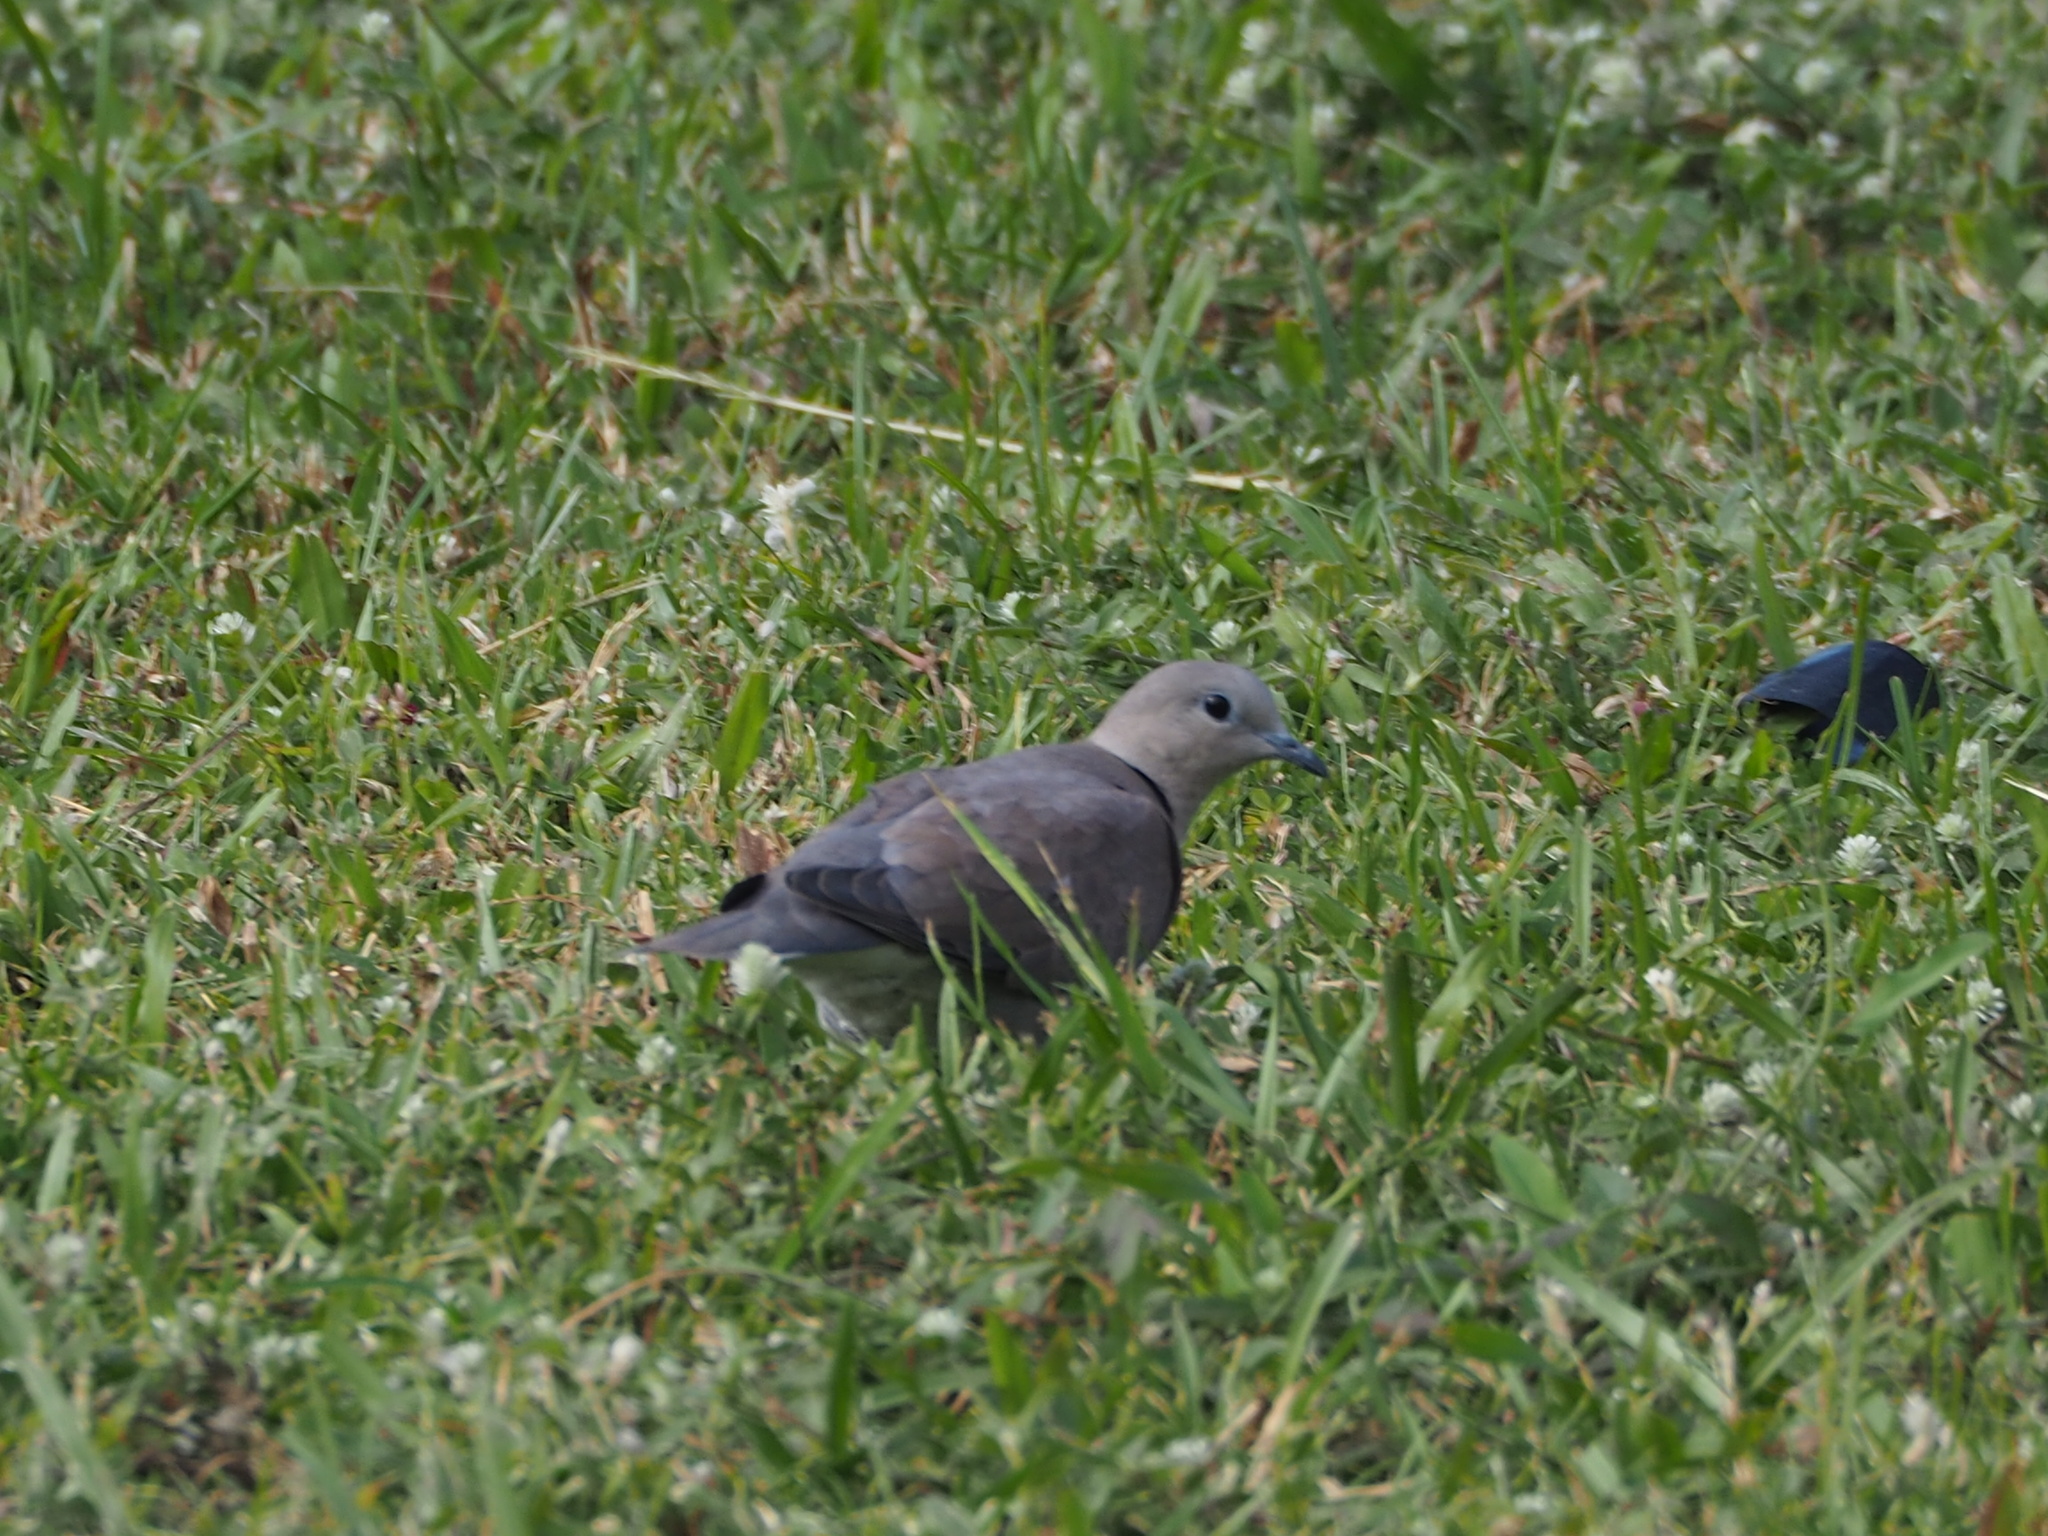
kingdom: Animalia
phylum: Chordata
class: Aves
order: Columbiformes
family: Columbidae
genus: Streptopelia
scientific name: Streptopelia tranquebarica
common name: Red turtle dove
